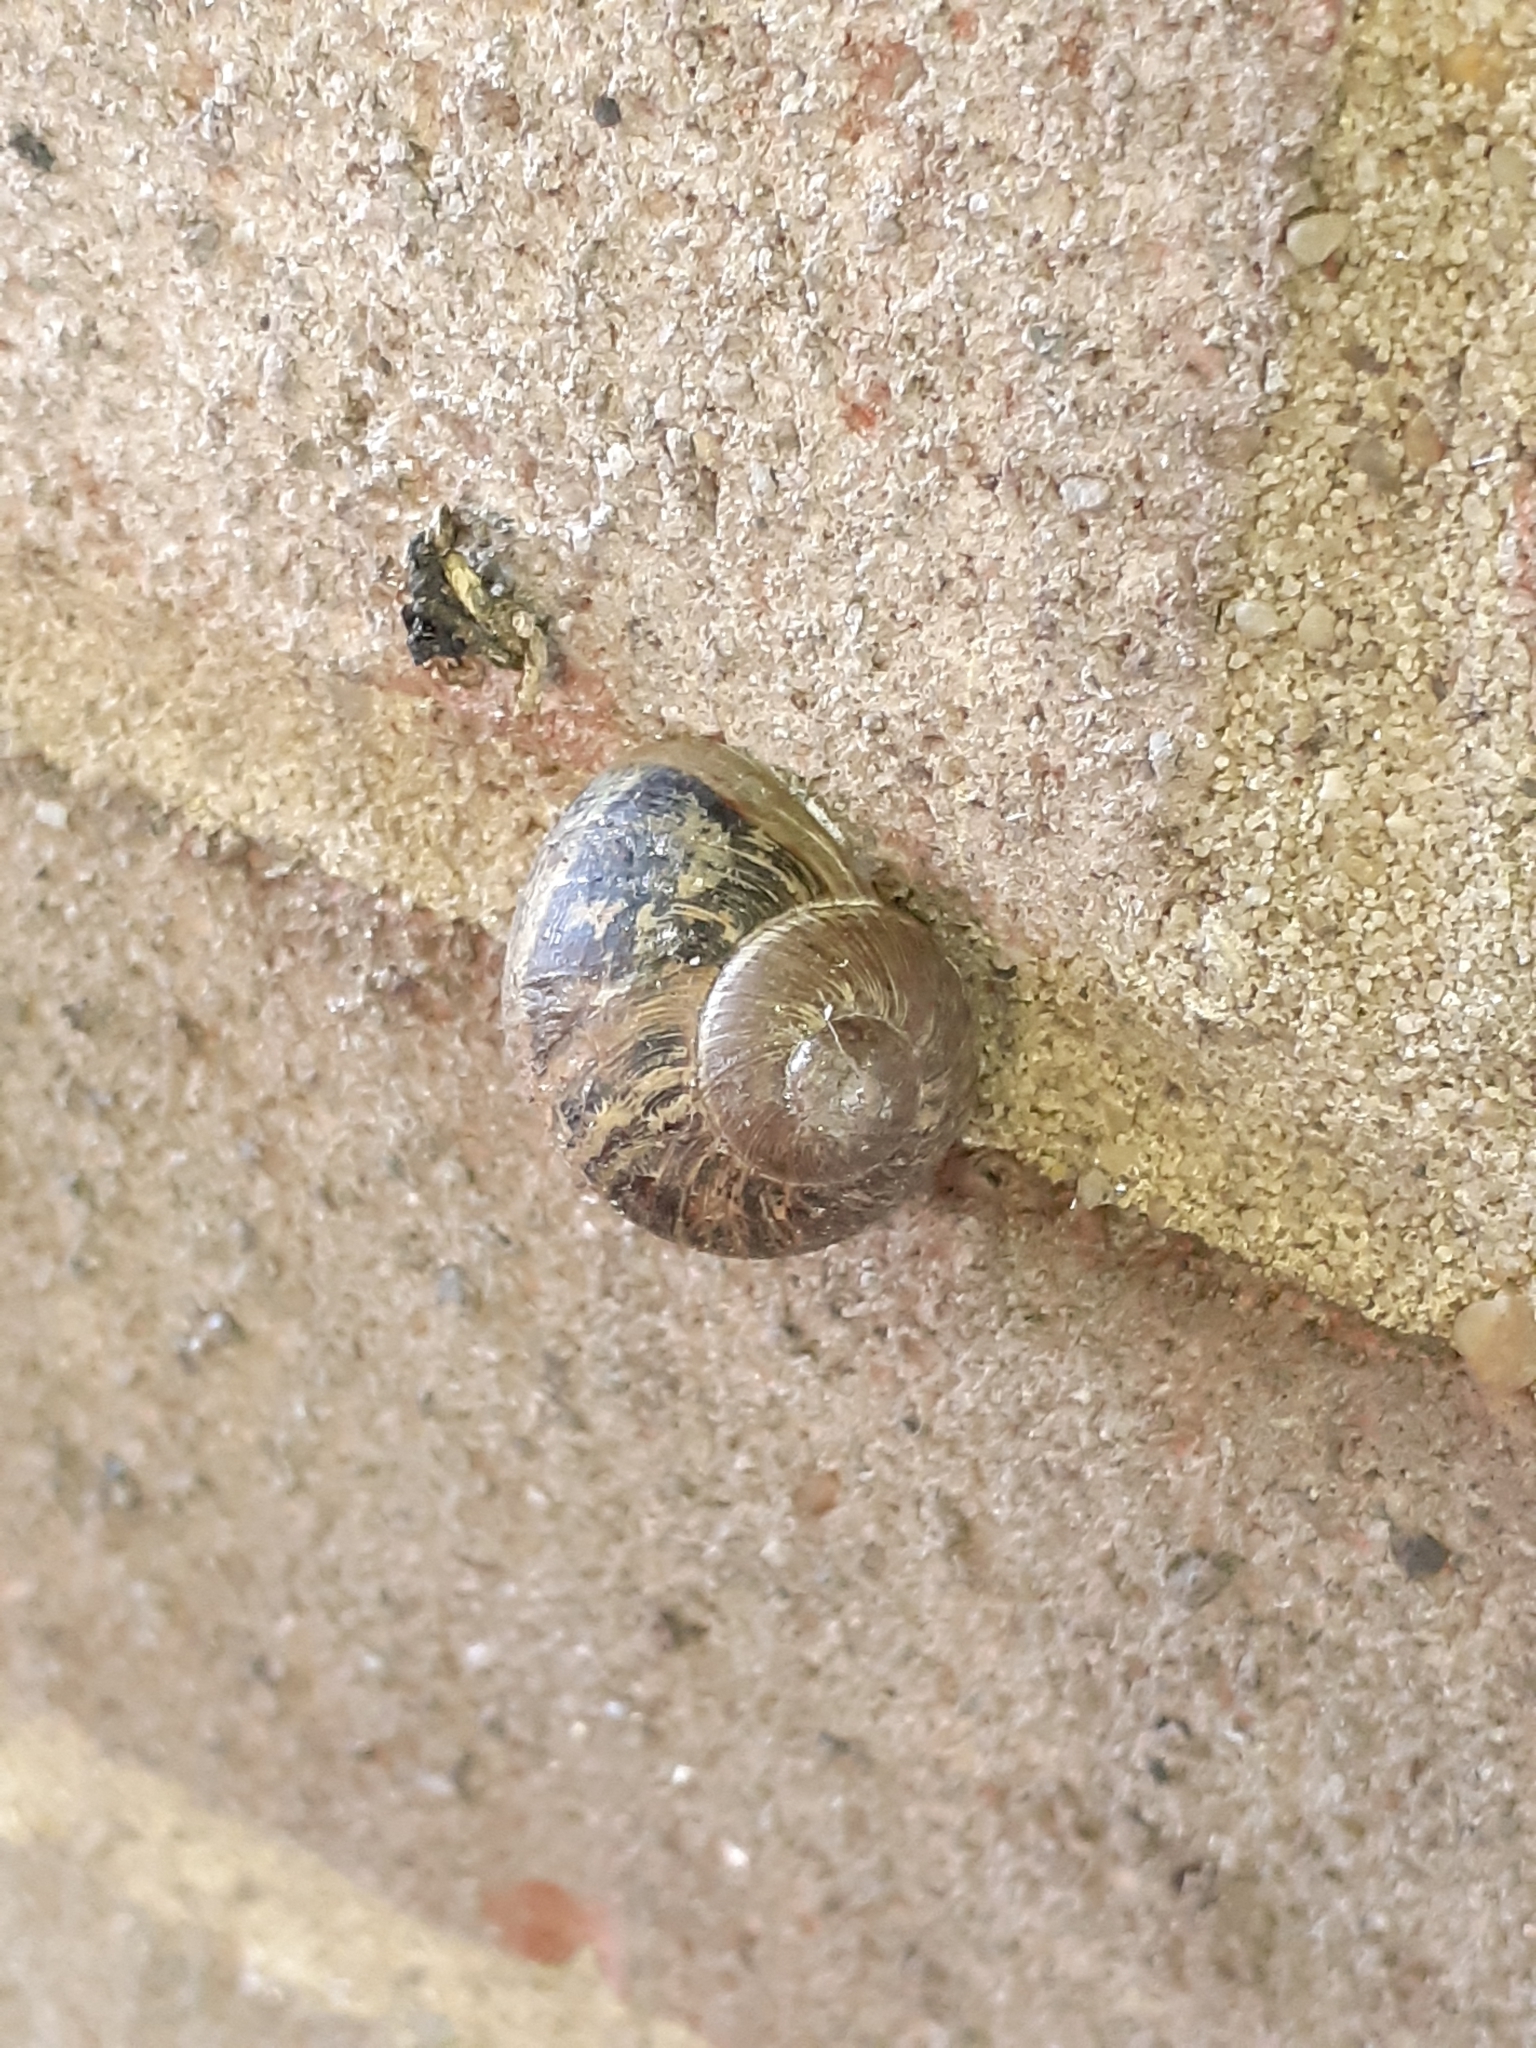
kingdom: Animalia
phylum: Mollusca
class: Gastropoda
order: Stylommatophora
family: Helicidae
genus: Cornu
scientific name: Cornu aspersum
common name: Brown garden snail
